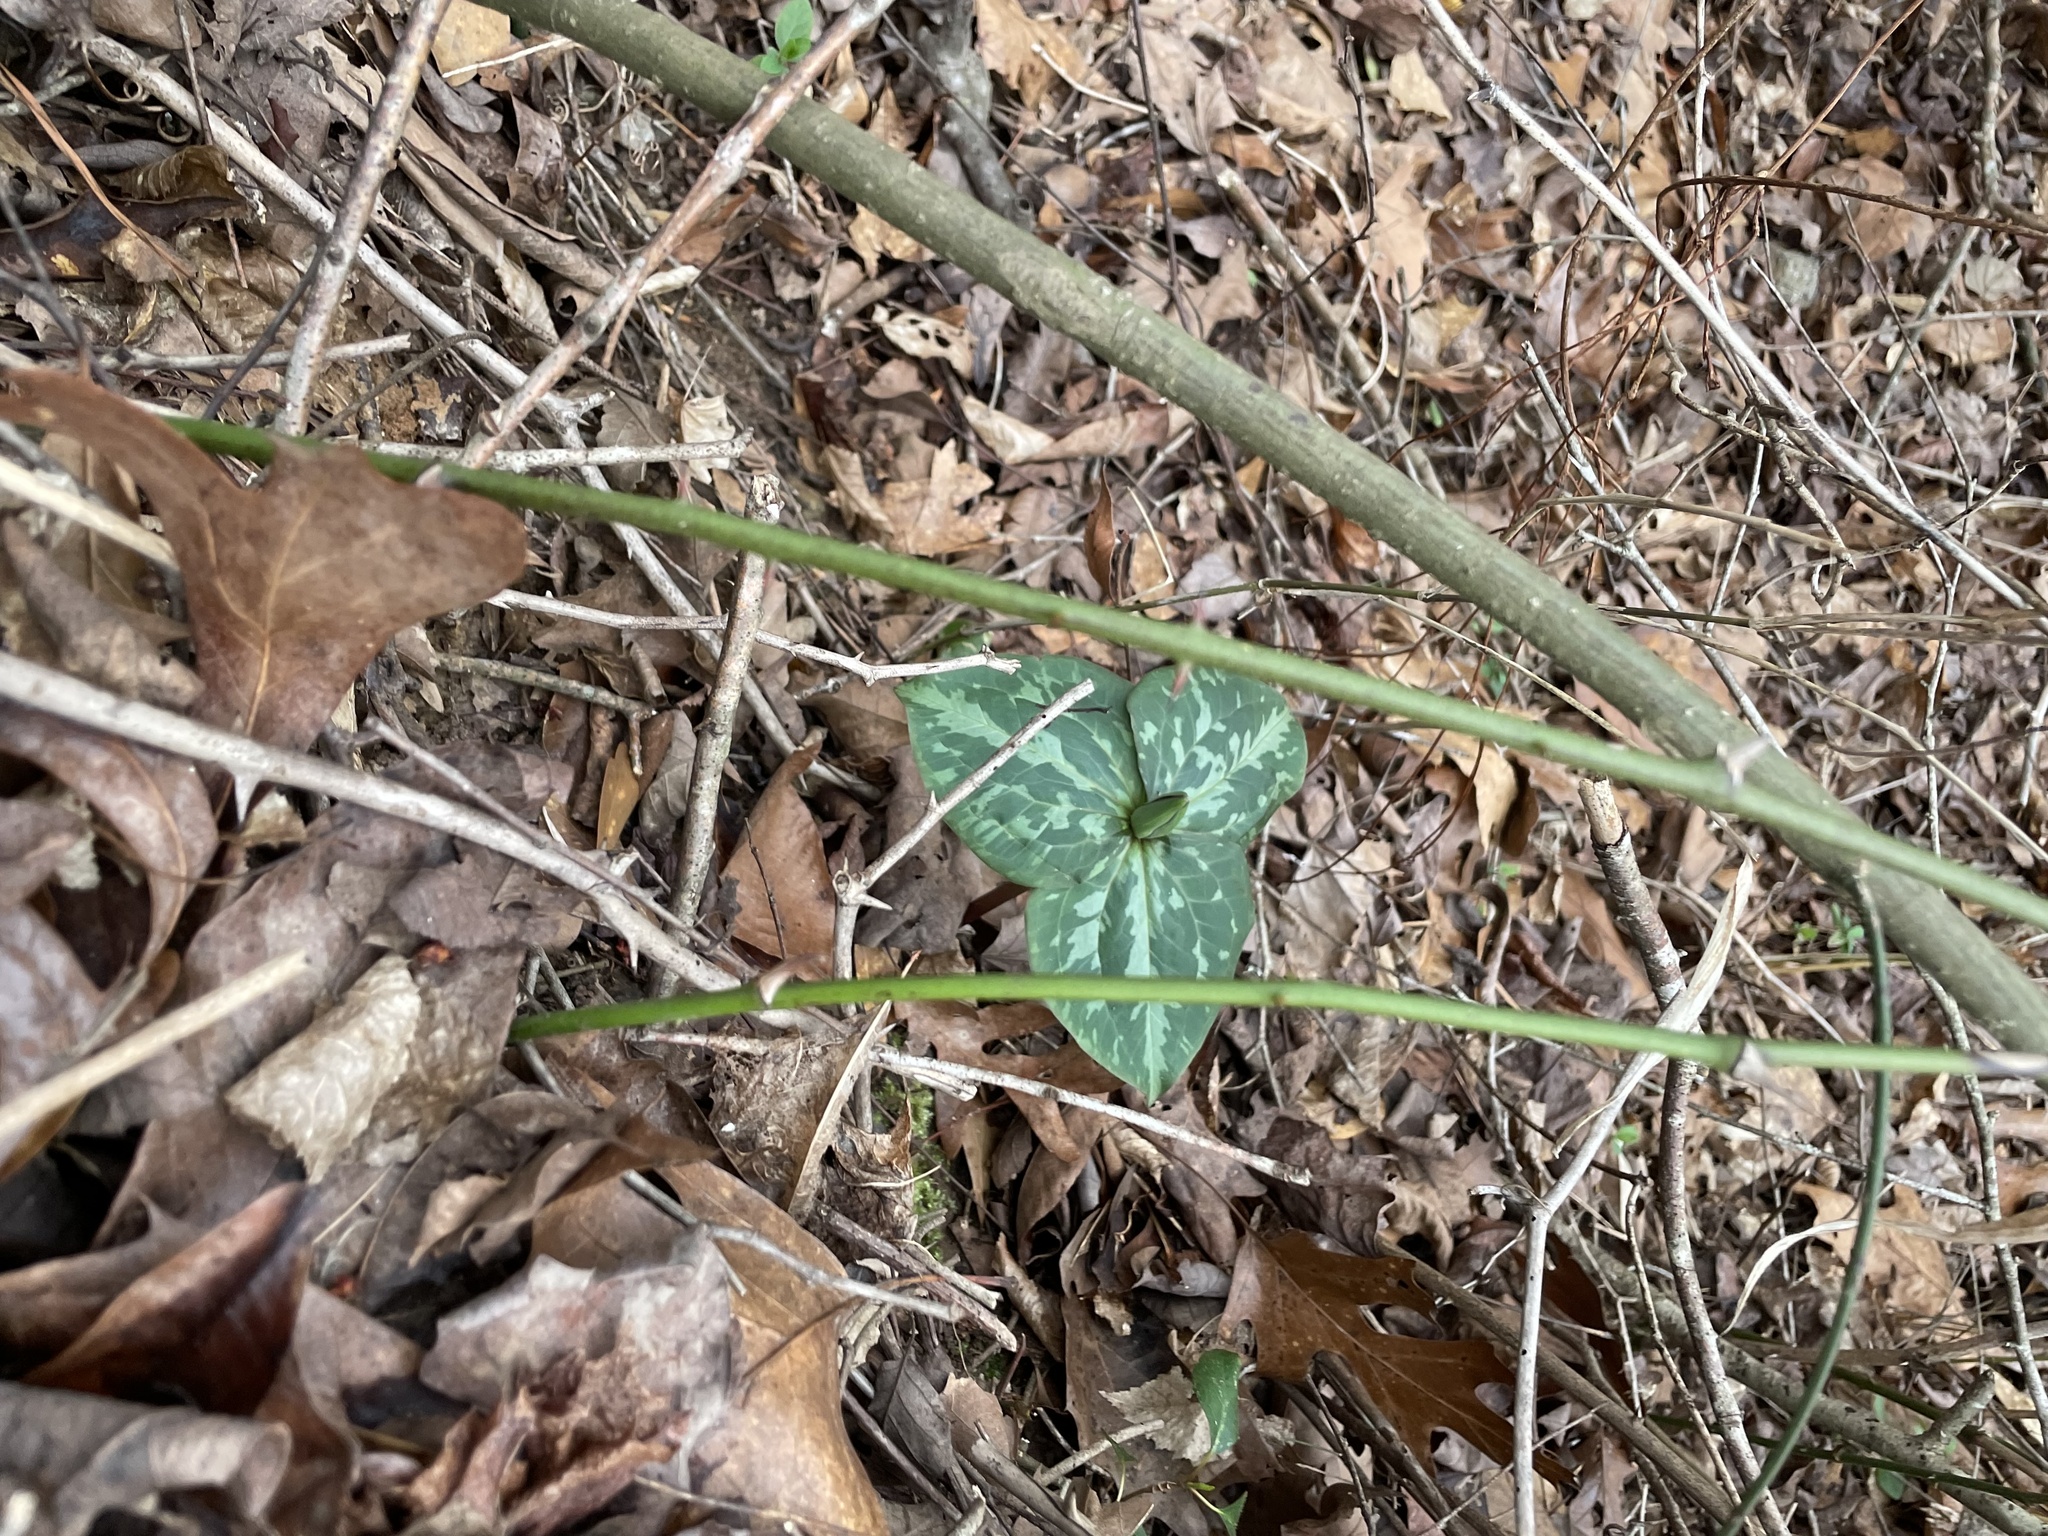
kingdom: Plantae
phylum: Tracheophyta
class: Liliopsida
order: Liliales
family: Melanthiaceae
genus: Trillium
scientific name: Trillium cuneatum
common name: Cuneate trillium
